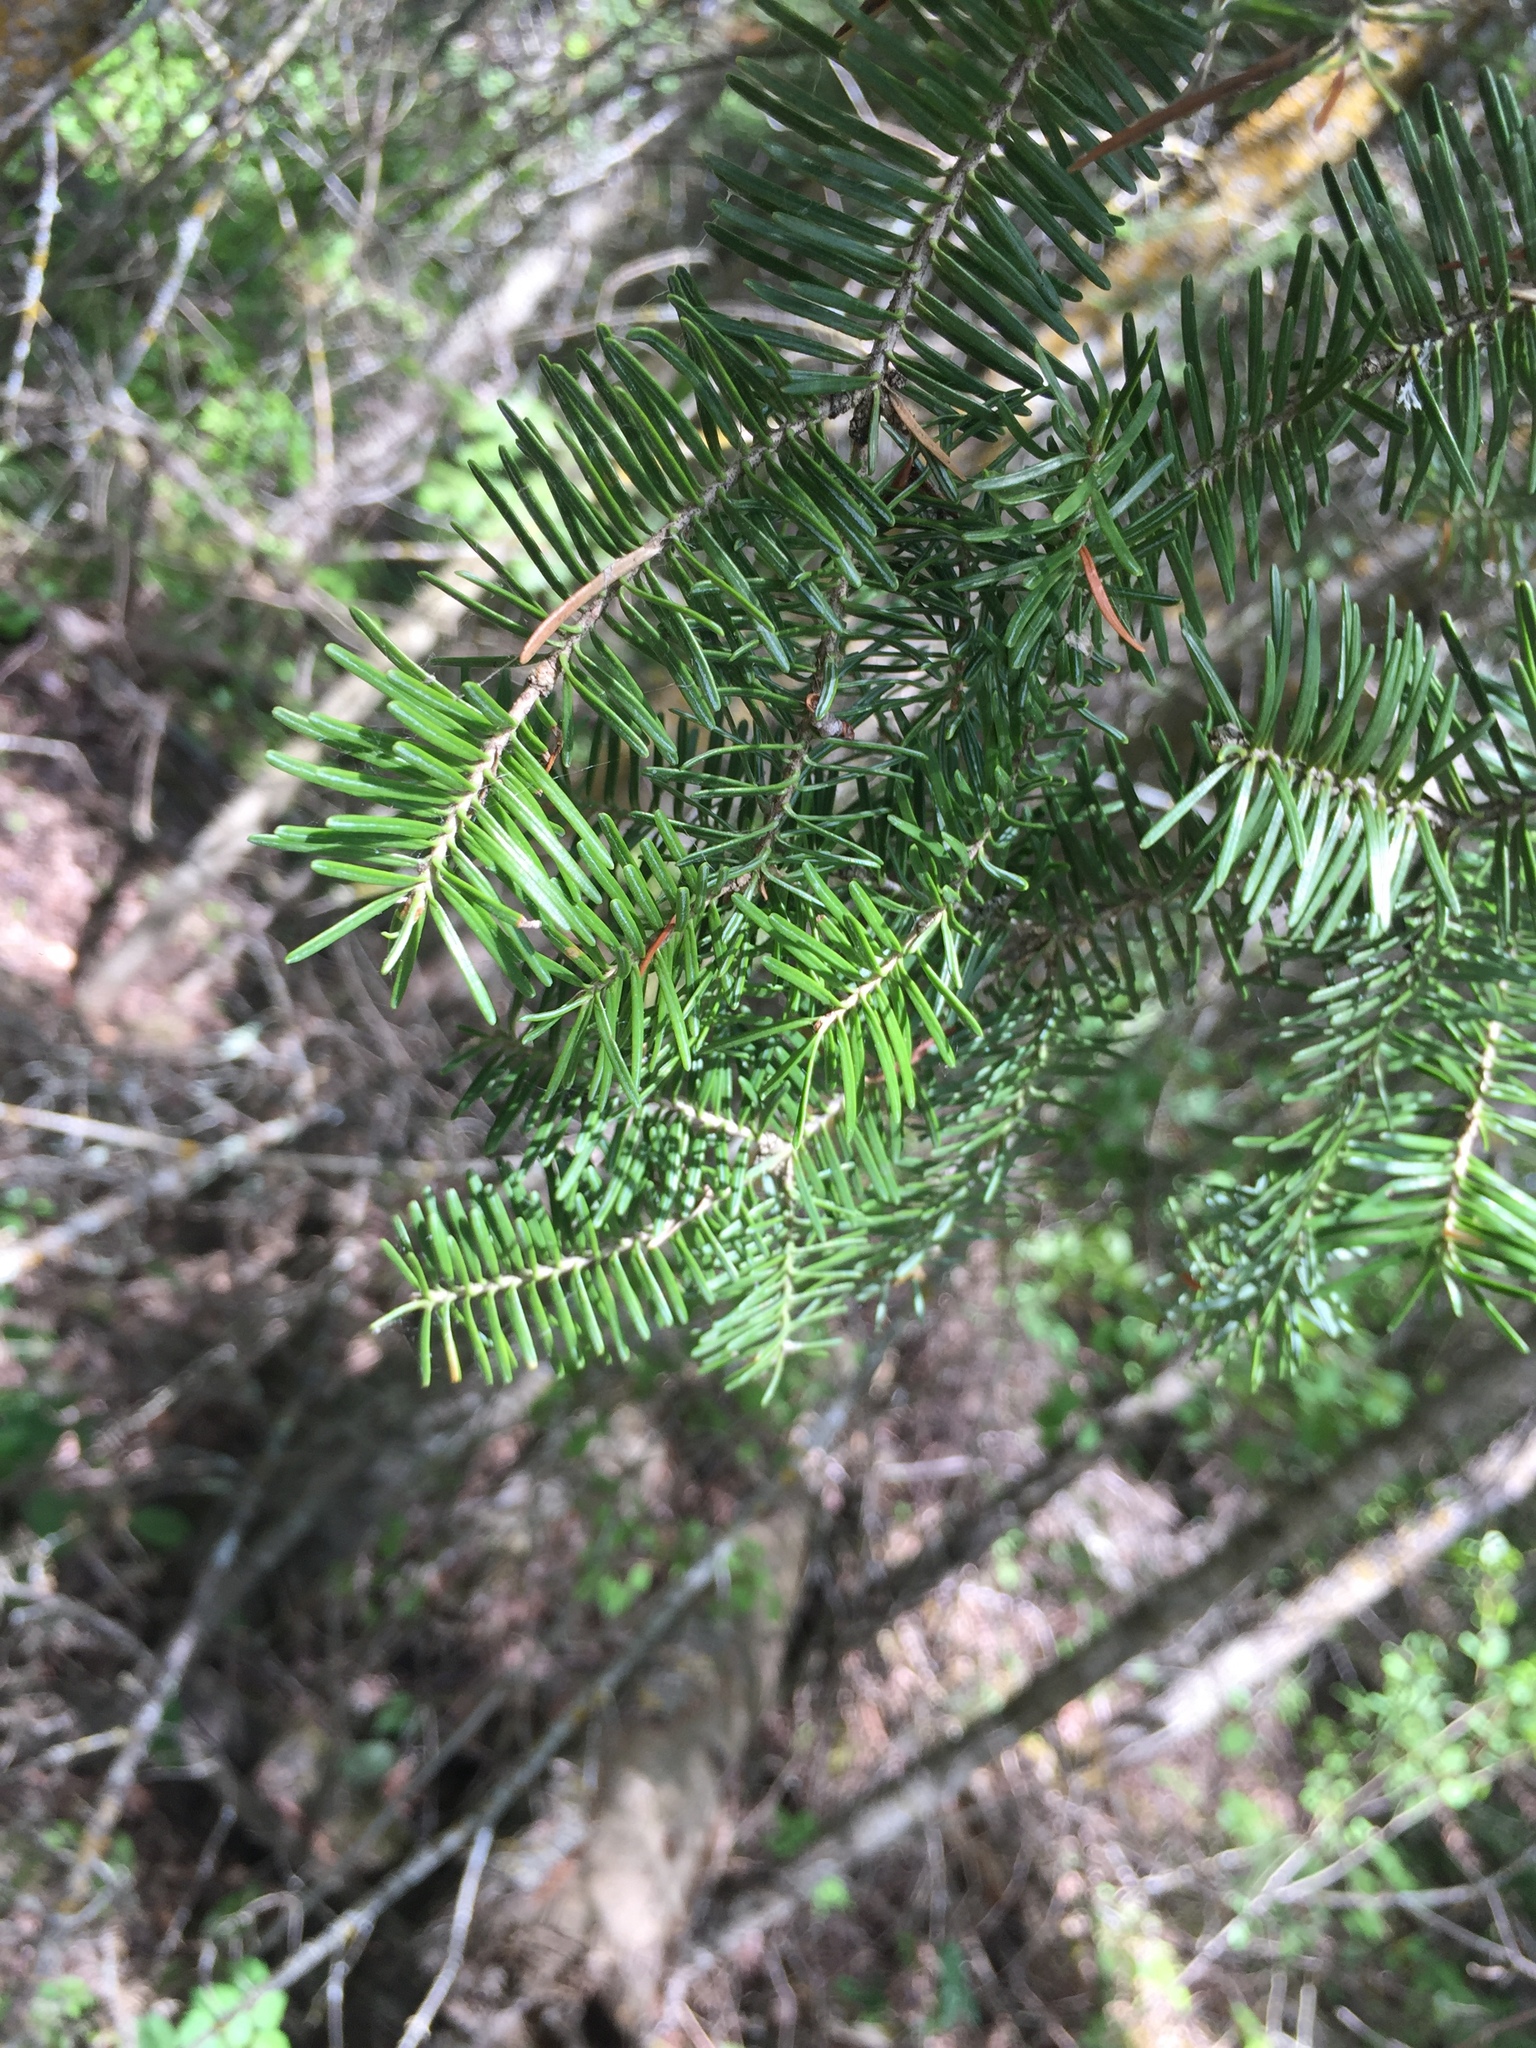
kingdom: Plantae
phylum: Tracheophyta
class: Pinopsida
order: Pinales
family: Pinaceae
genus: Abies
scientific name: Abies balsamea
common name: Balsam fir
